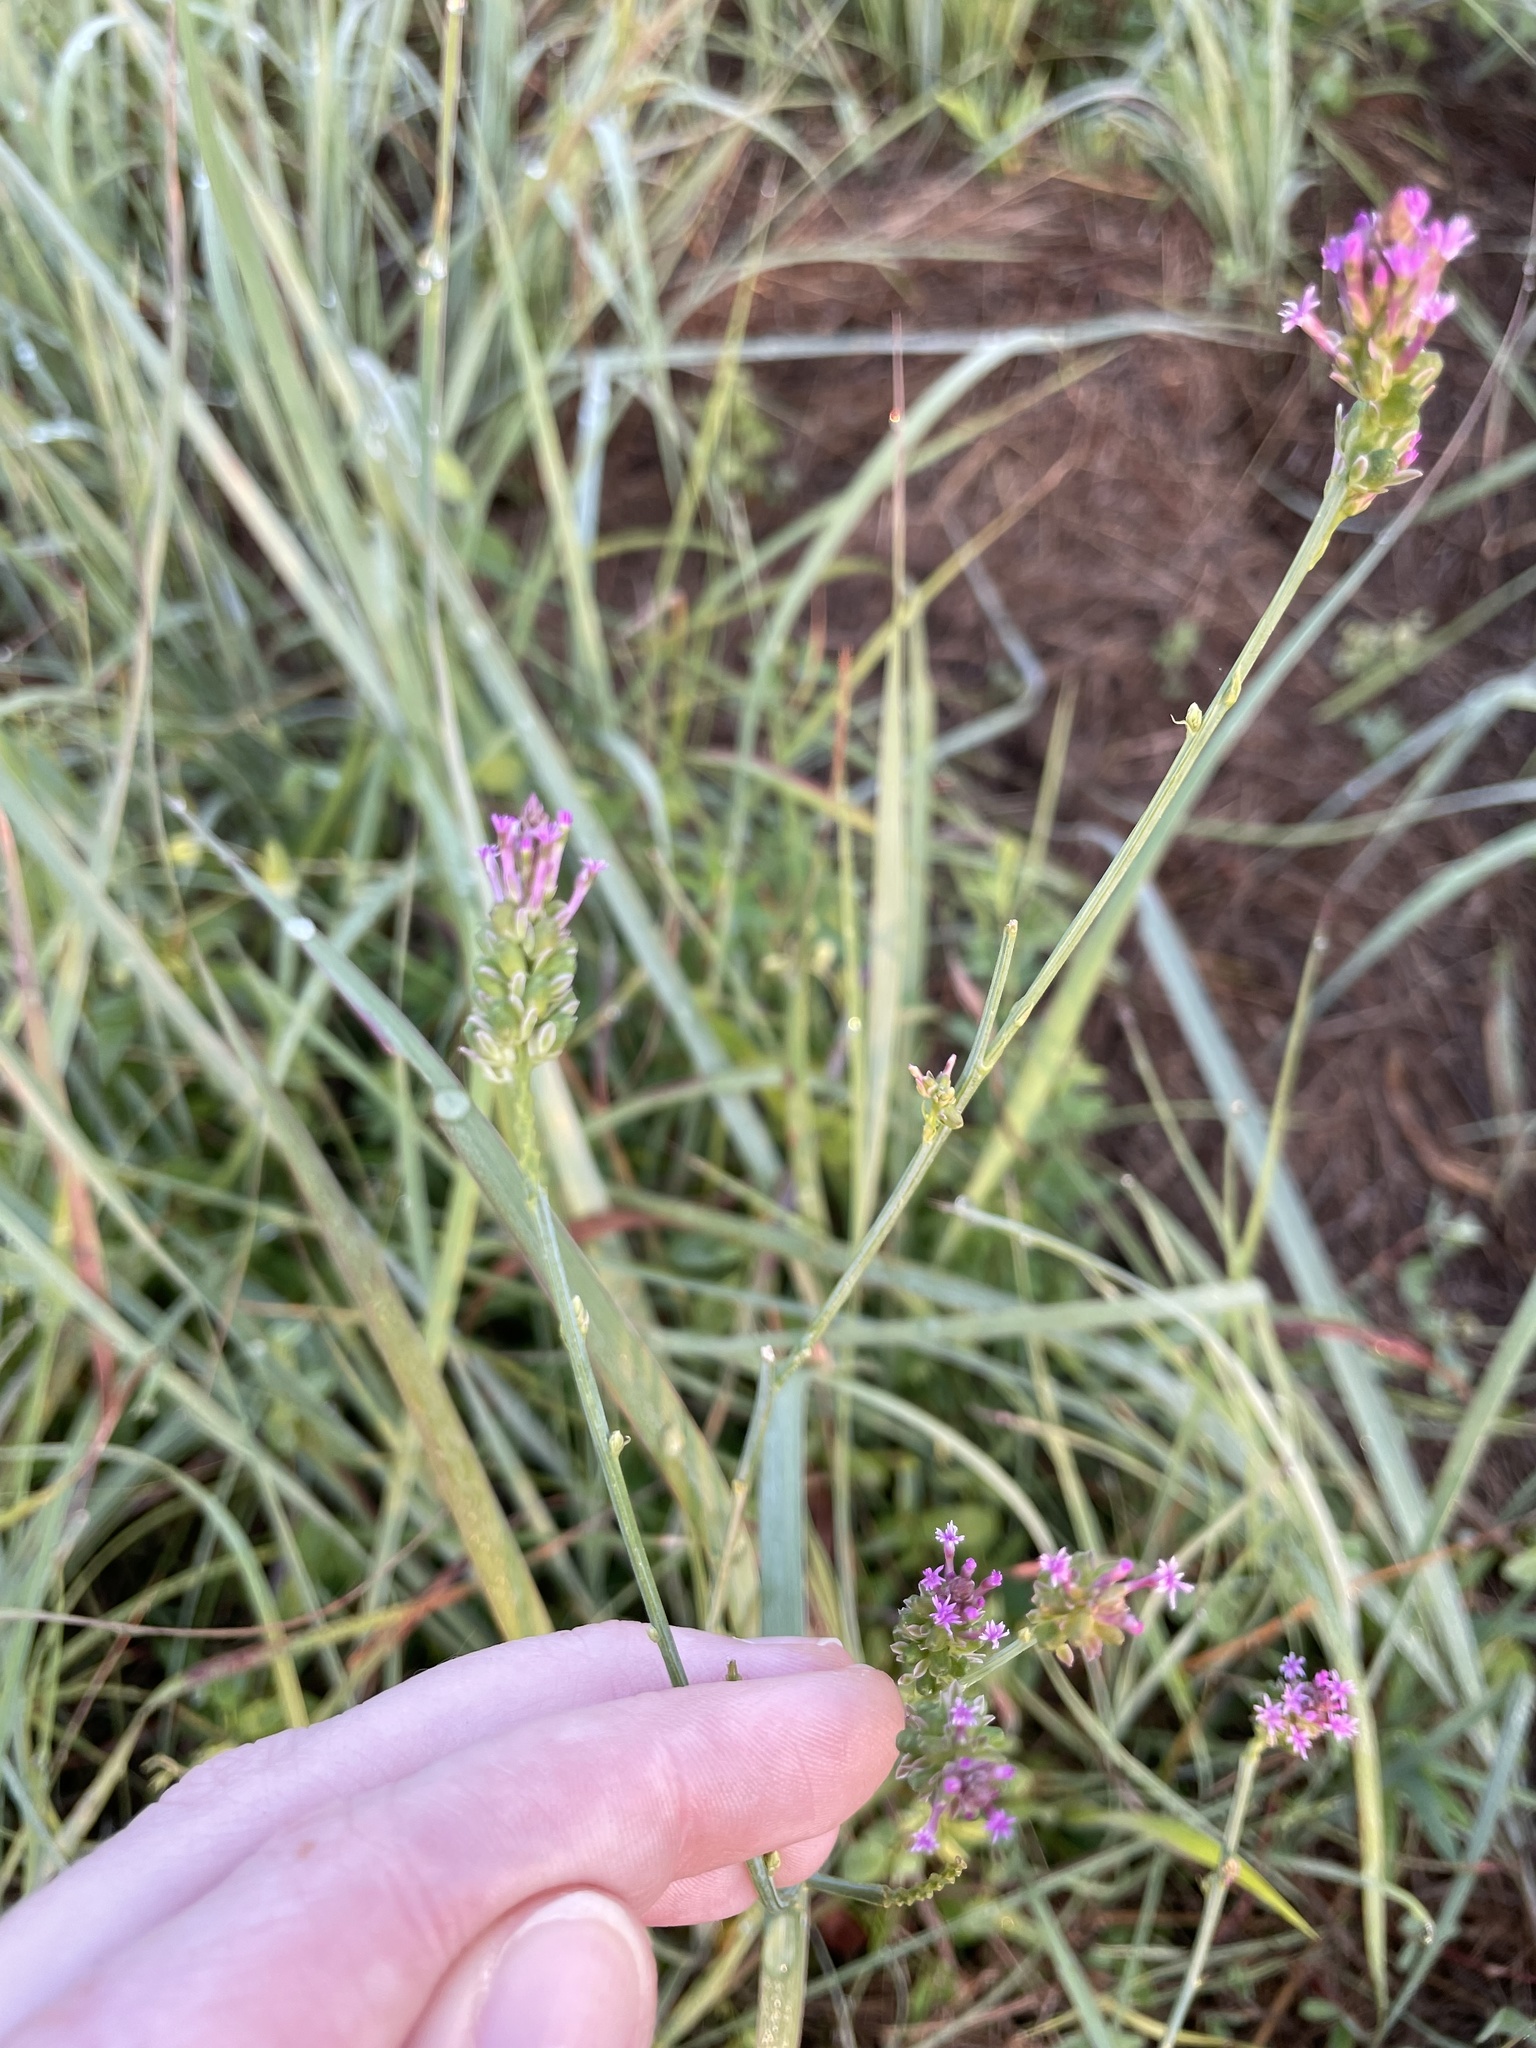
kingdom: Plantae
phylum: Tracheophyta
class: Magnoliopsida
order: Fabales
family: Polygalaceae
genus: Polygala
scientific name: Polygala incarnata
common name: Pink milkwort
